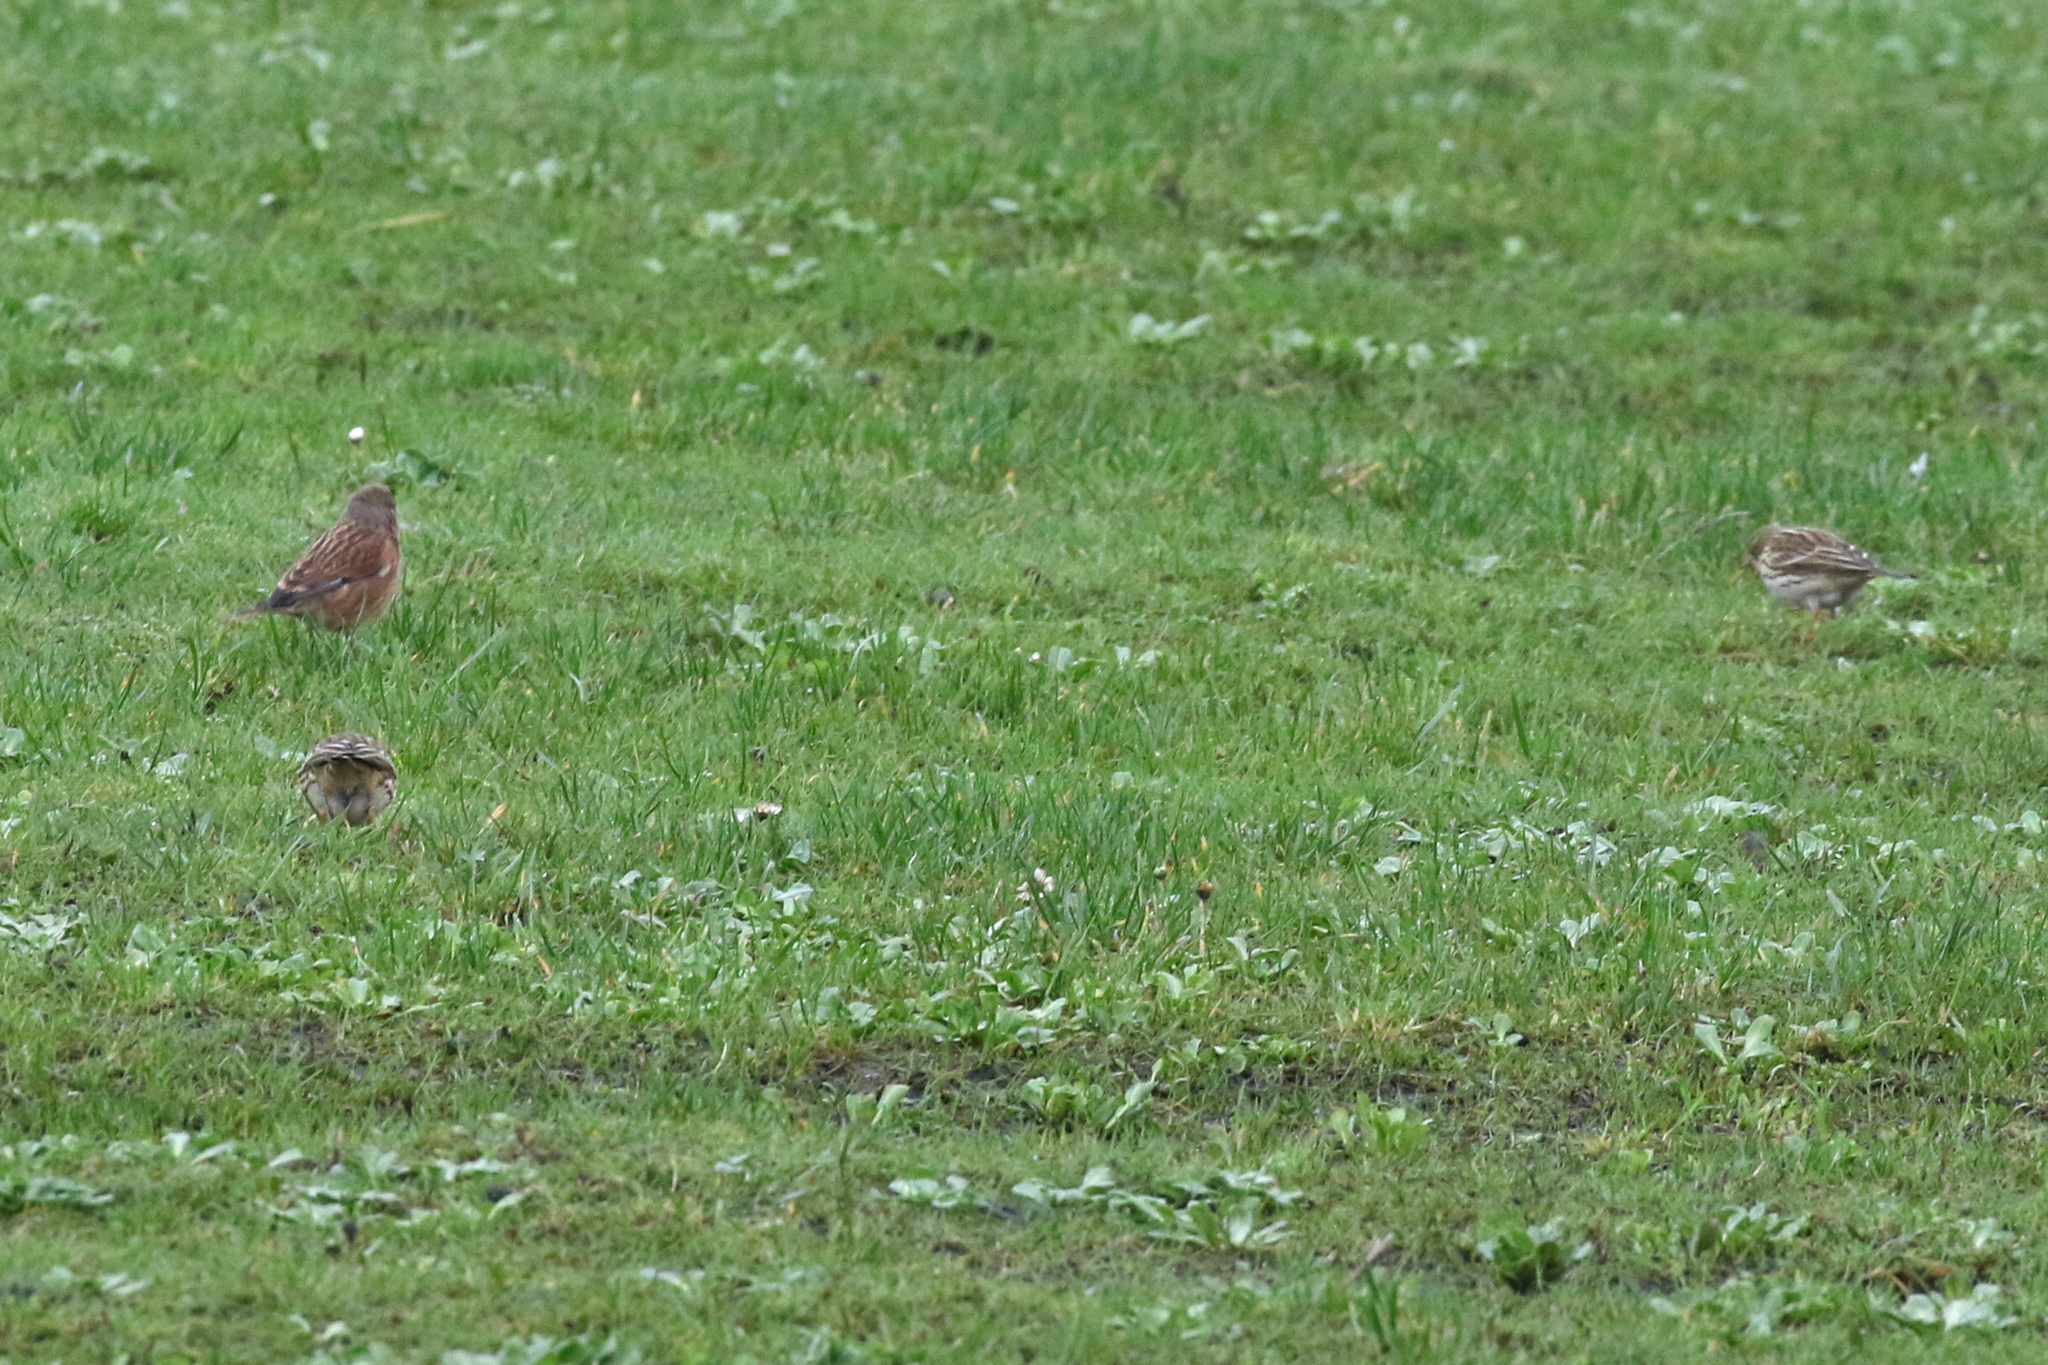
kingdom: Animalia
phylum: Chordata
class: Aves
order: Passeriformes
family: Fringillidae
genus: Linaria
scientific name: Linaria cannabina
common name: Common linnet
